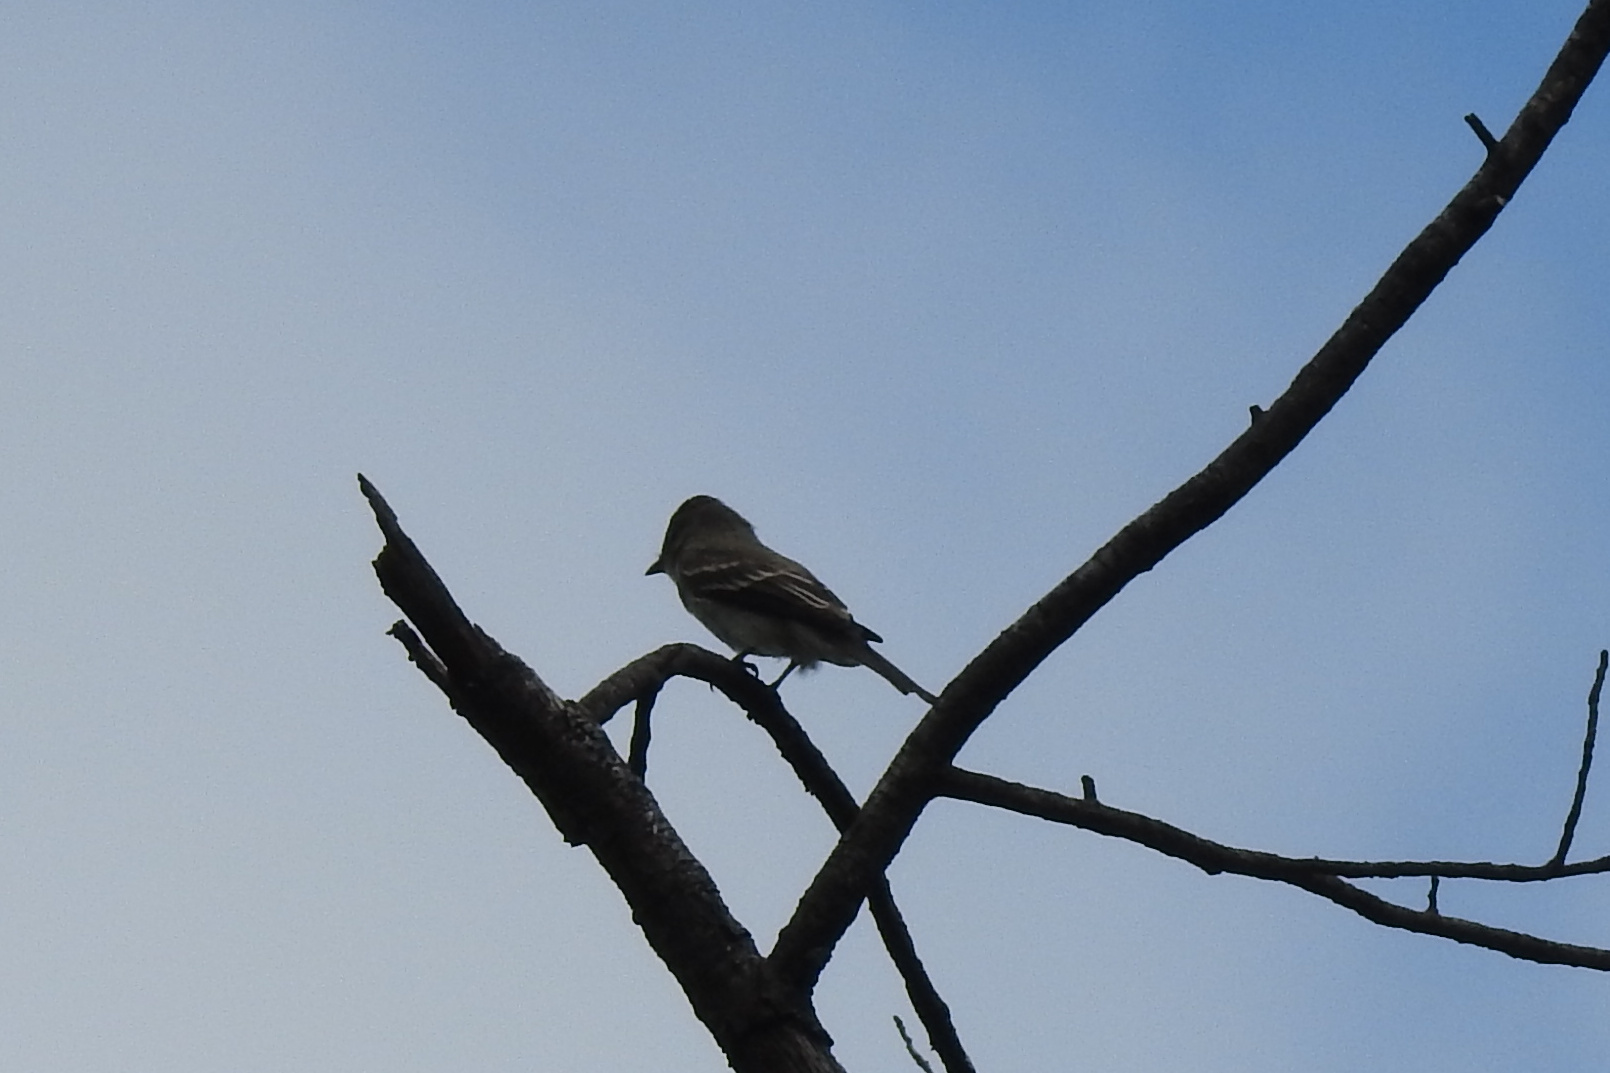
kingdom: Animalia
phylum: Chordata
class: Aves
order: Passeriformes
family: Tyrannidae
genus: Contopus
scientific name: Contopus virens
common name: Eastern wood-pewee
